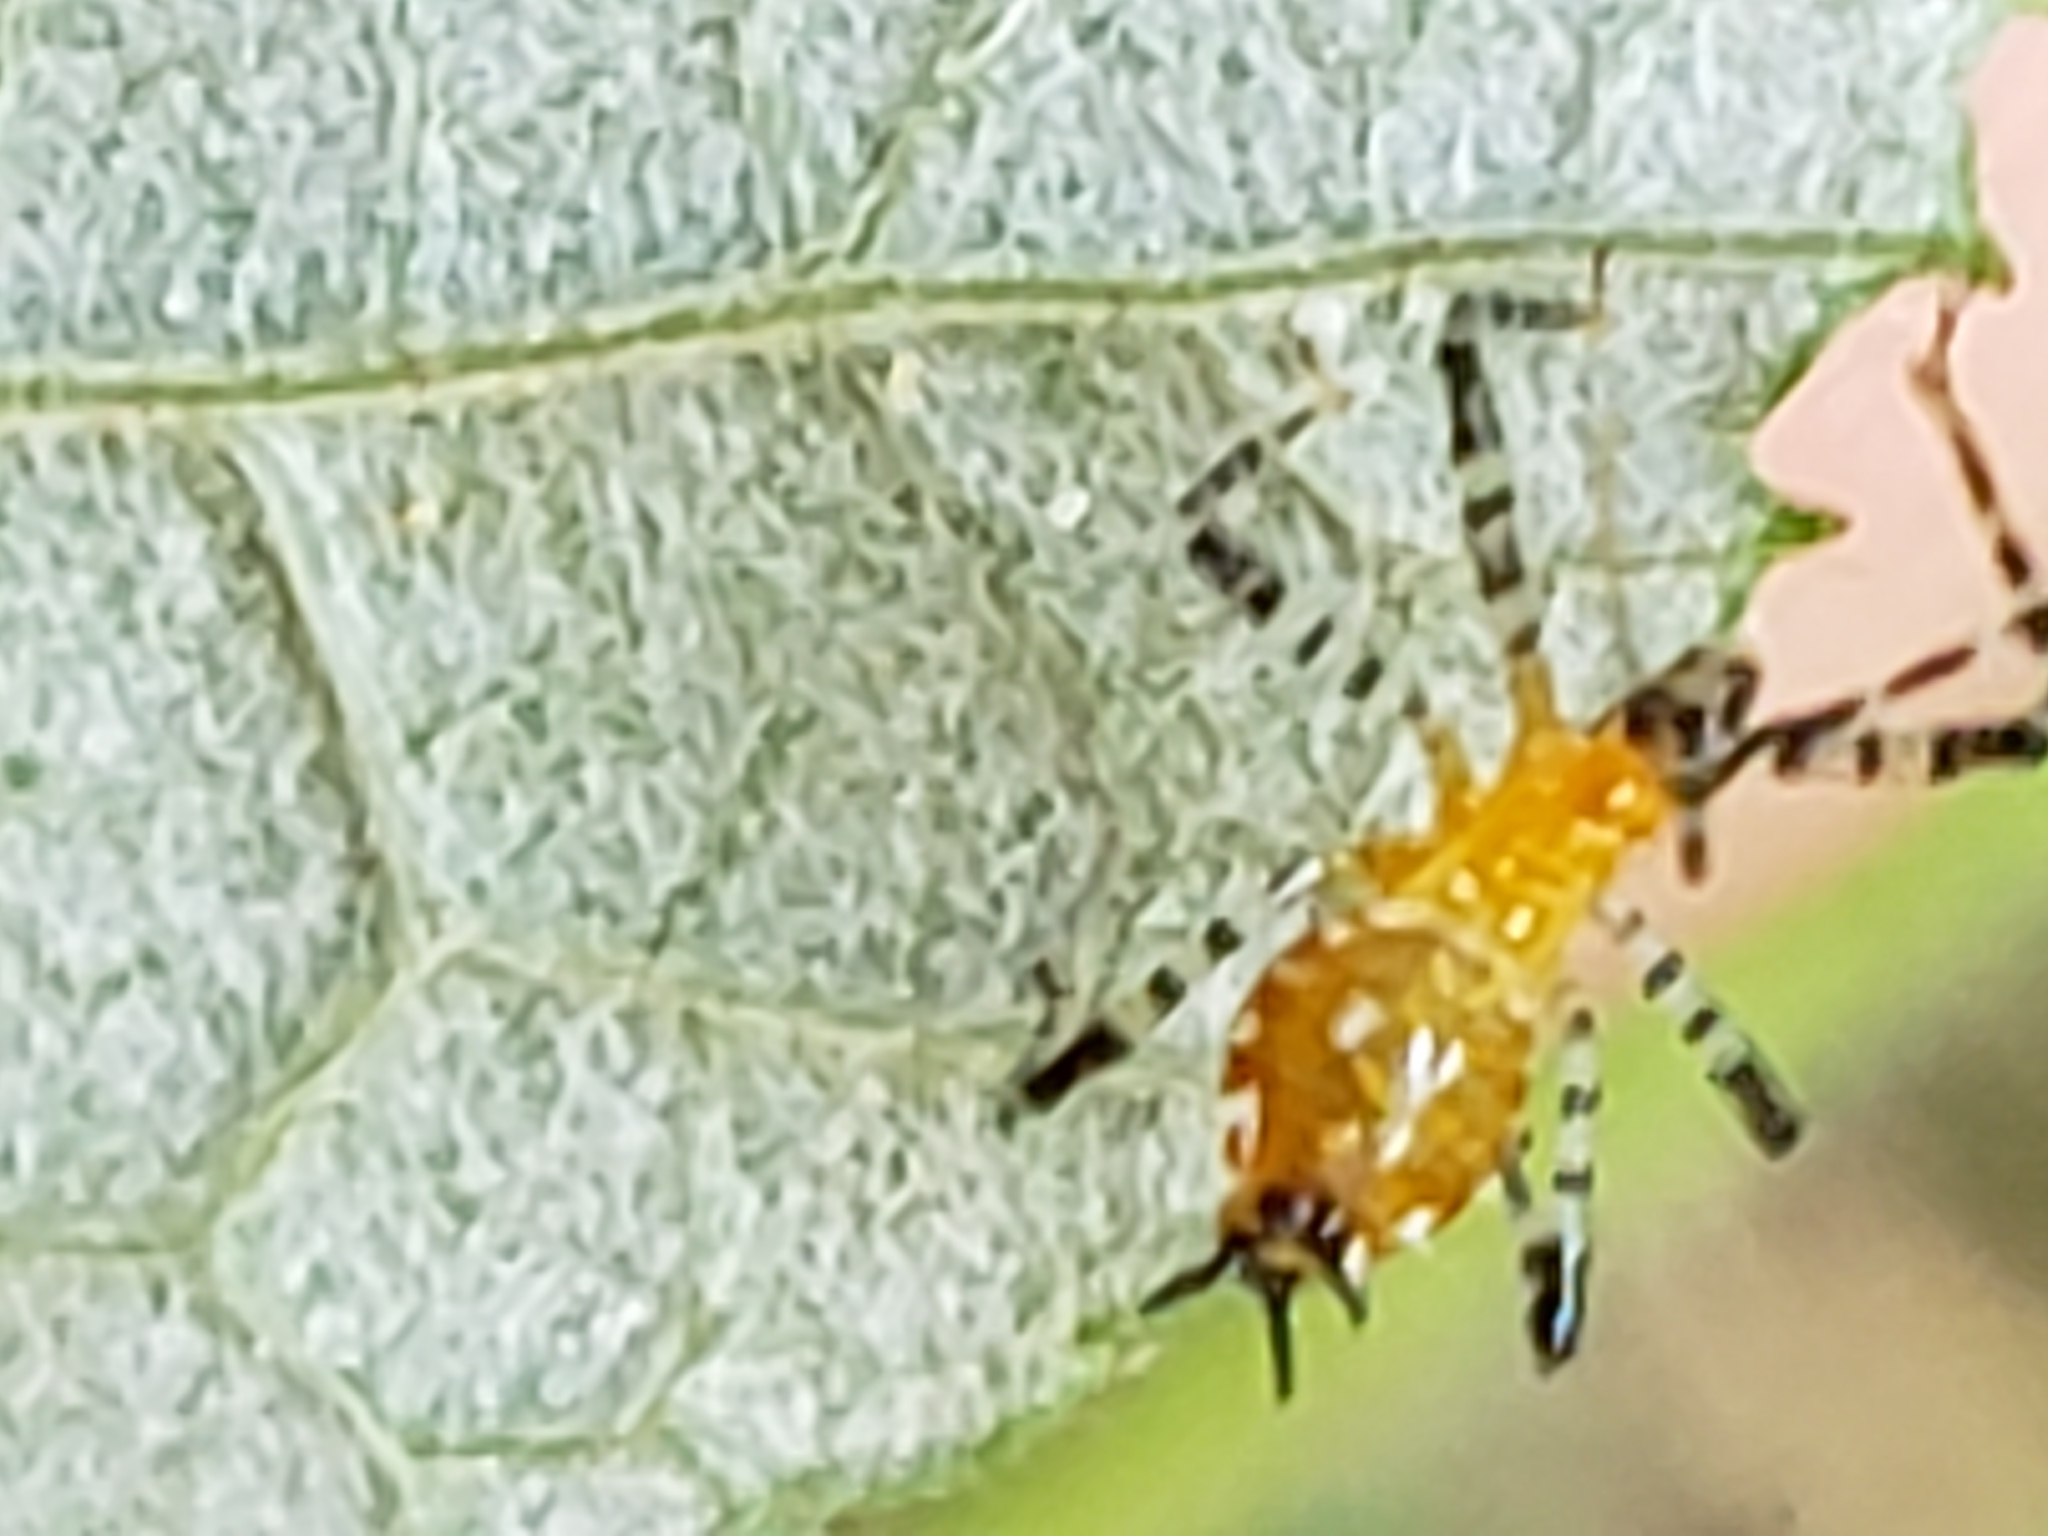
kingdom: Animalia
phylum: Arthropoda
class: Insecta
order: Hemiptera
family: Reduviidae
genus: Pselliopus
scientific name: Pselliopus cinctus
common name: Ringed assassin bug
